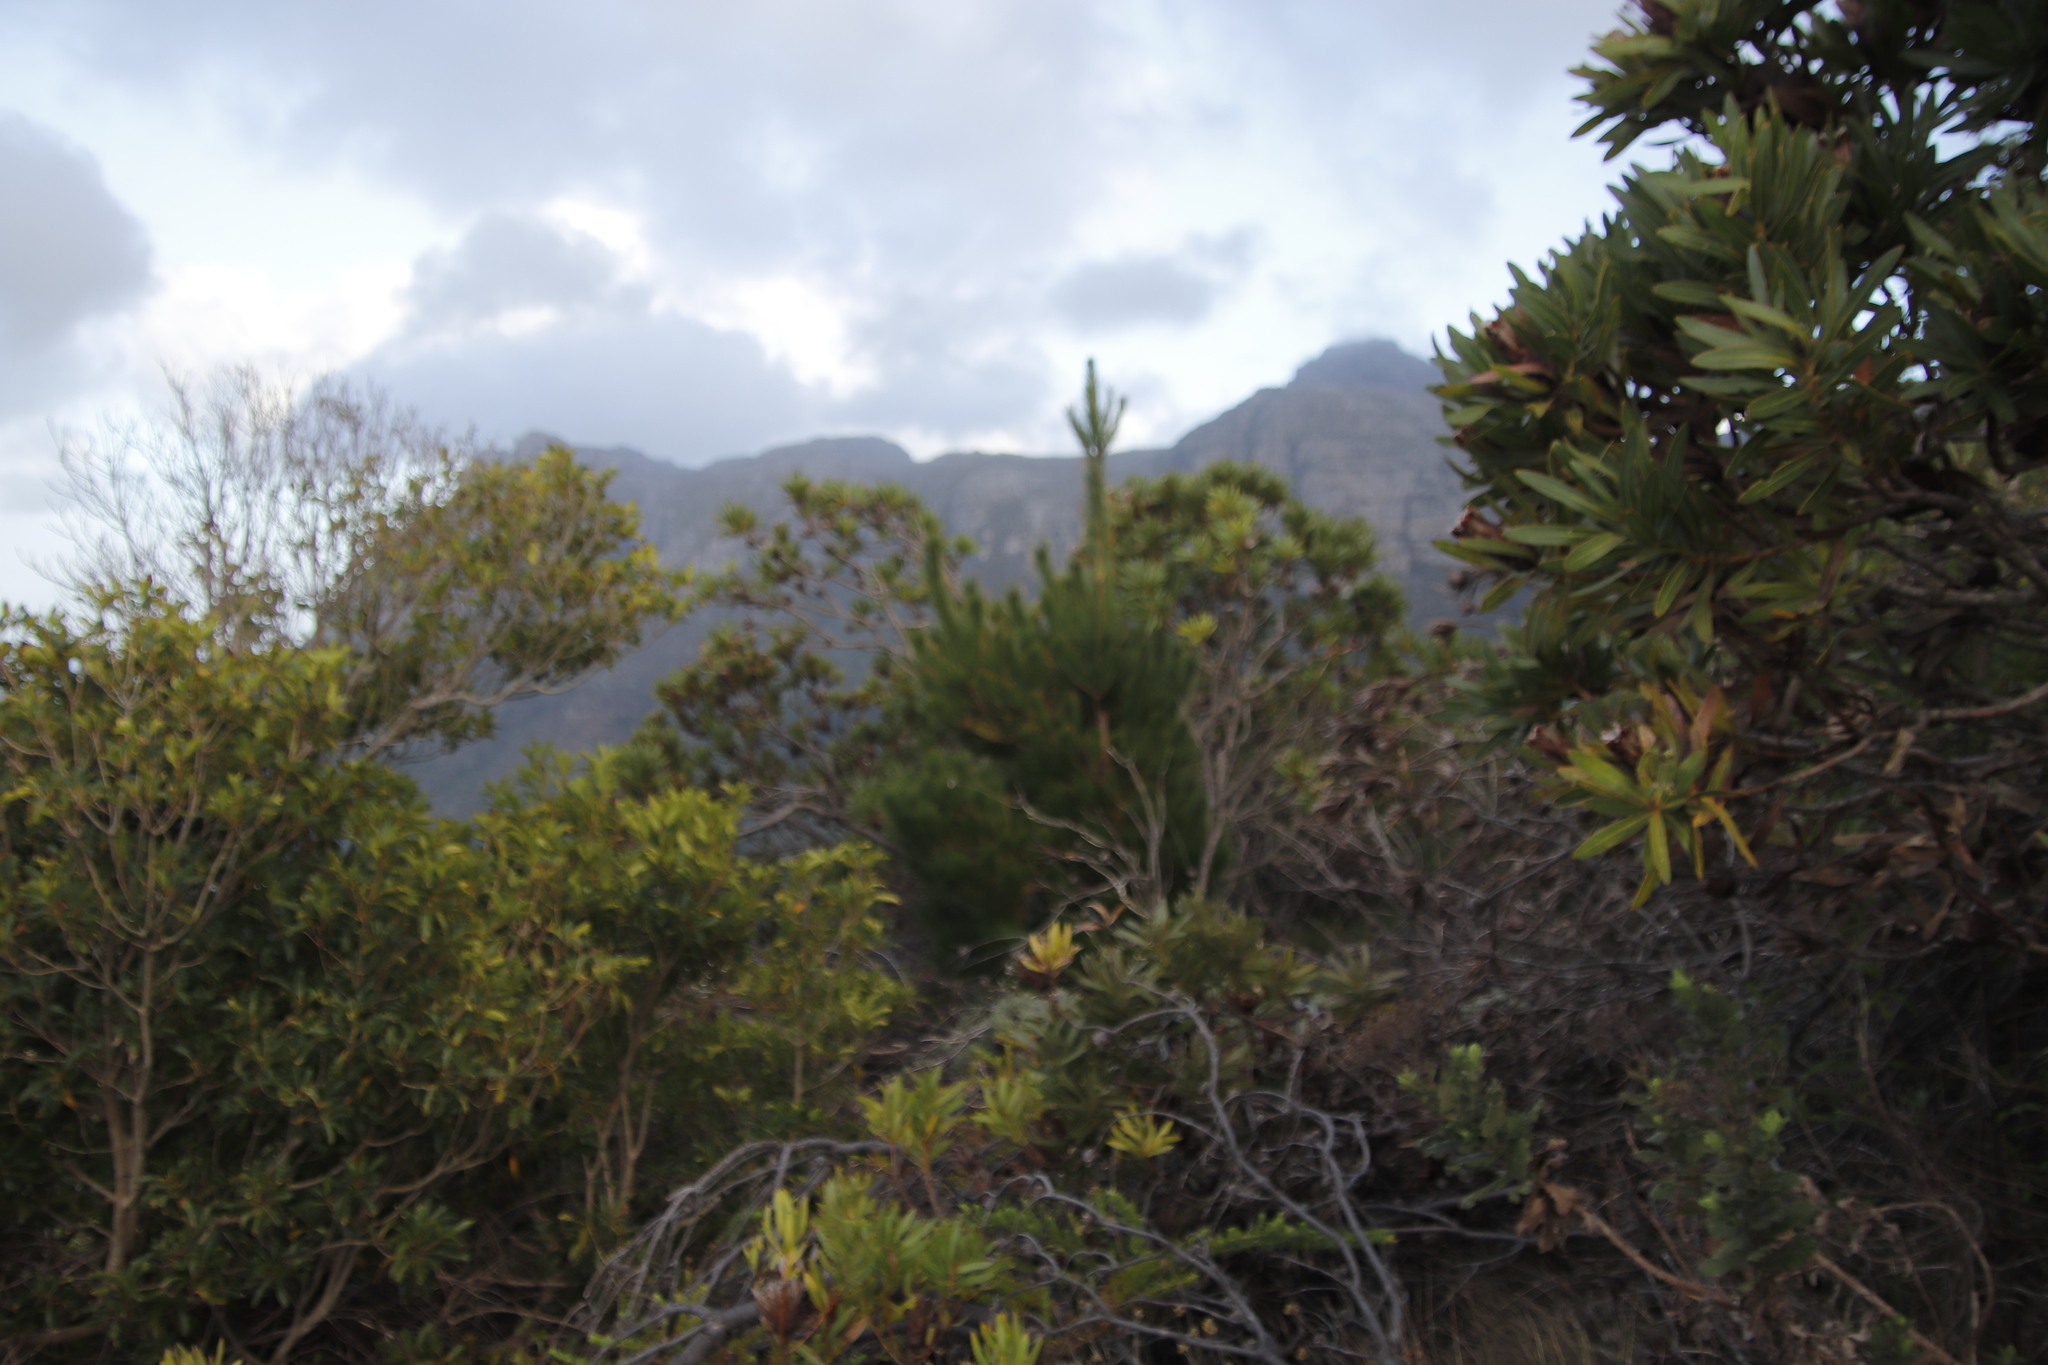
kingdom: Plantae
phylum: Tracheophyta
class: Pinopsida
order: Pinales
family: Pinaceae
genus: Pinus
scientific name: Pinus radiata
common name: Monterey pine
